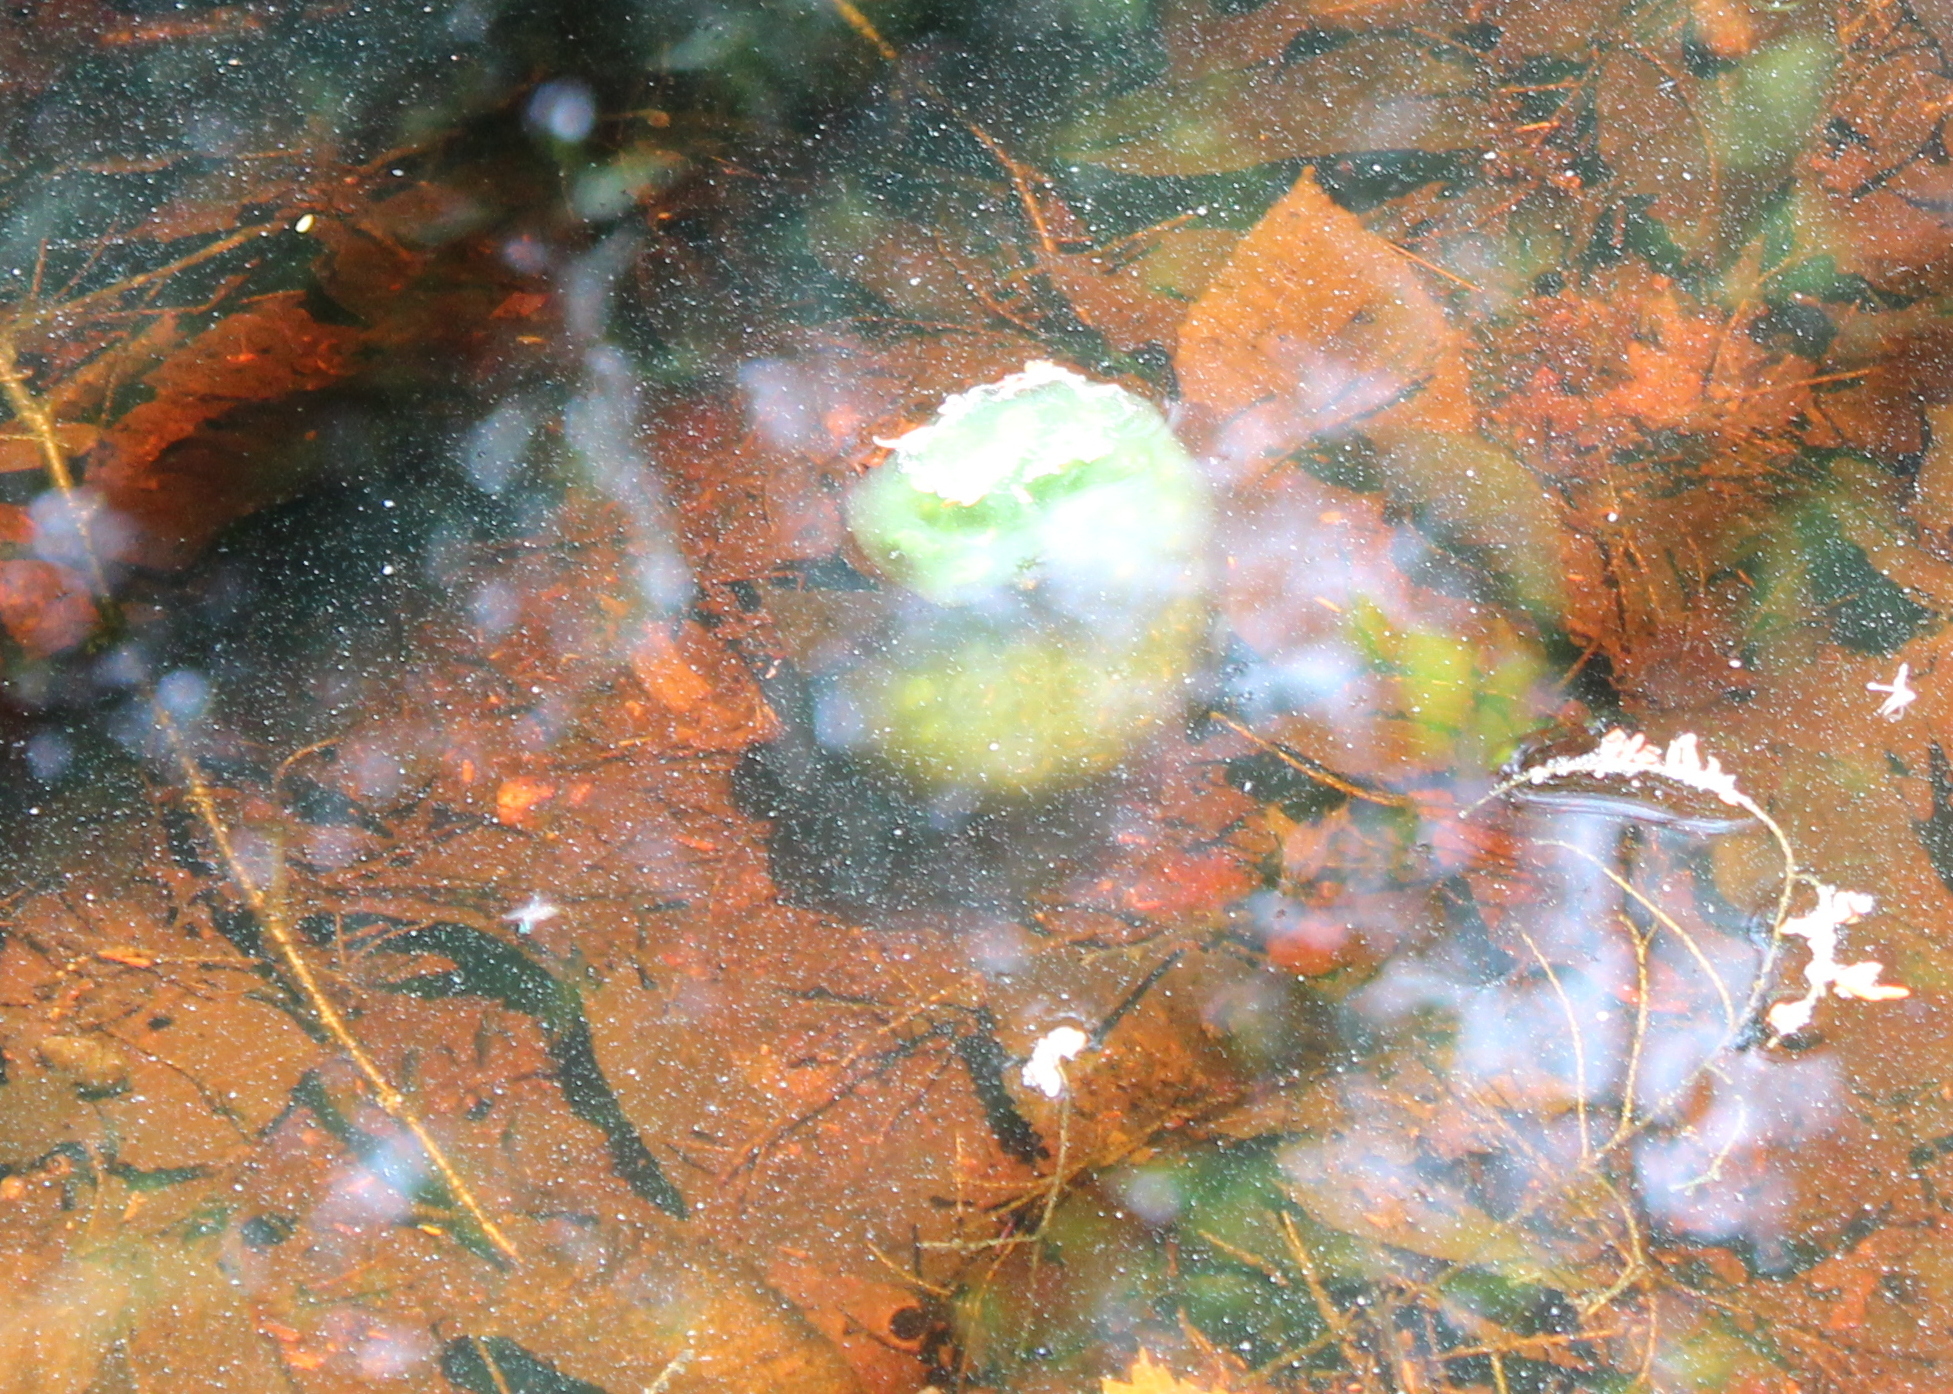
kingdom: Animalia
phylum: Chordata
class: Amphibia
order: Caudata
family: Ambystomatidae
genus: Ambystoma
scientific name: Ambystoma maculatum
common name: Spotted salamander
